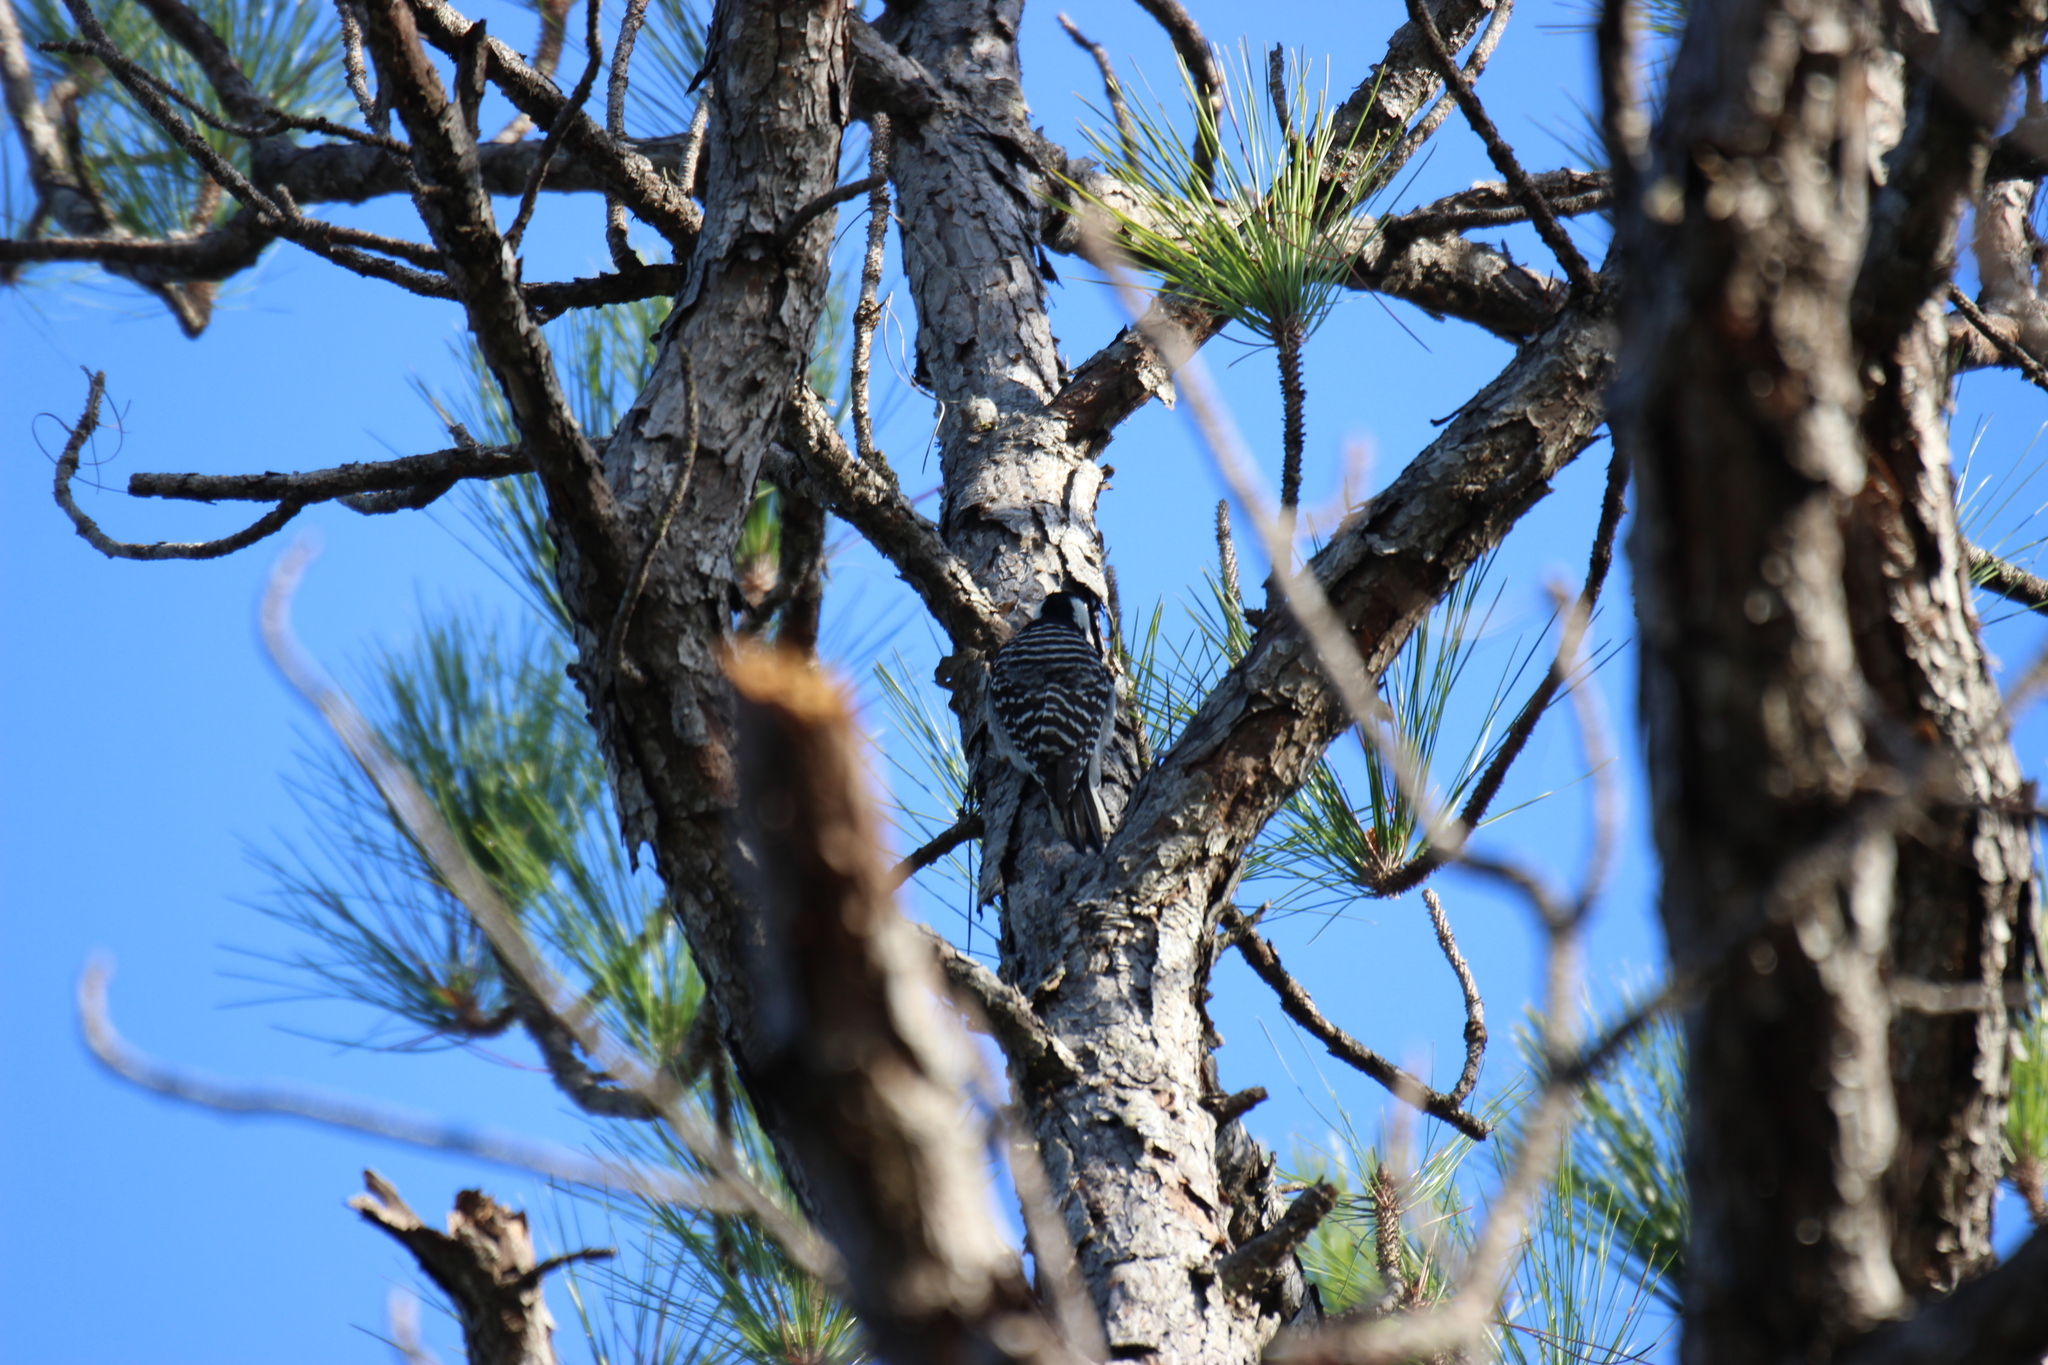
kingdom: Animalia
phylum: Chordata
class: Aves
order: Piciformes
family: Picidae
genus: Leuconotopicus
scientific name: Leuconotopicus borealis
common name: Red-cockaded woodpecker
